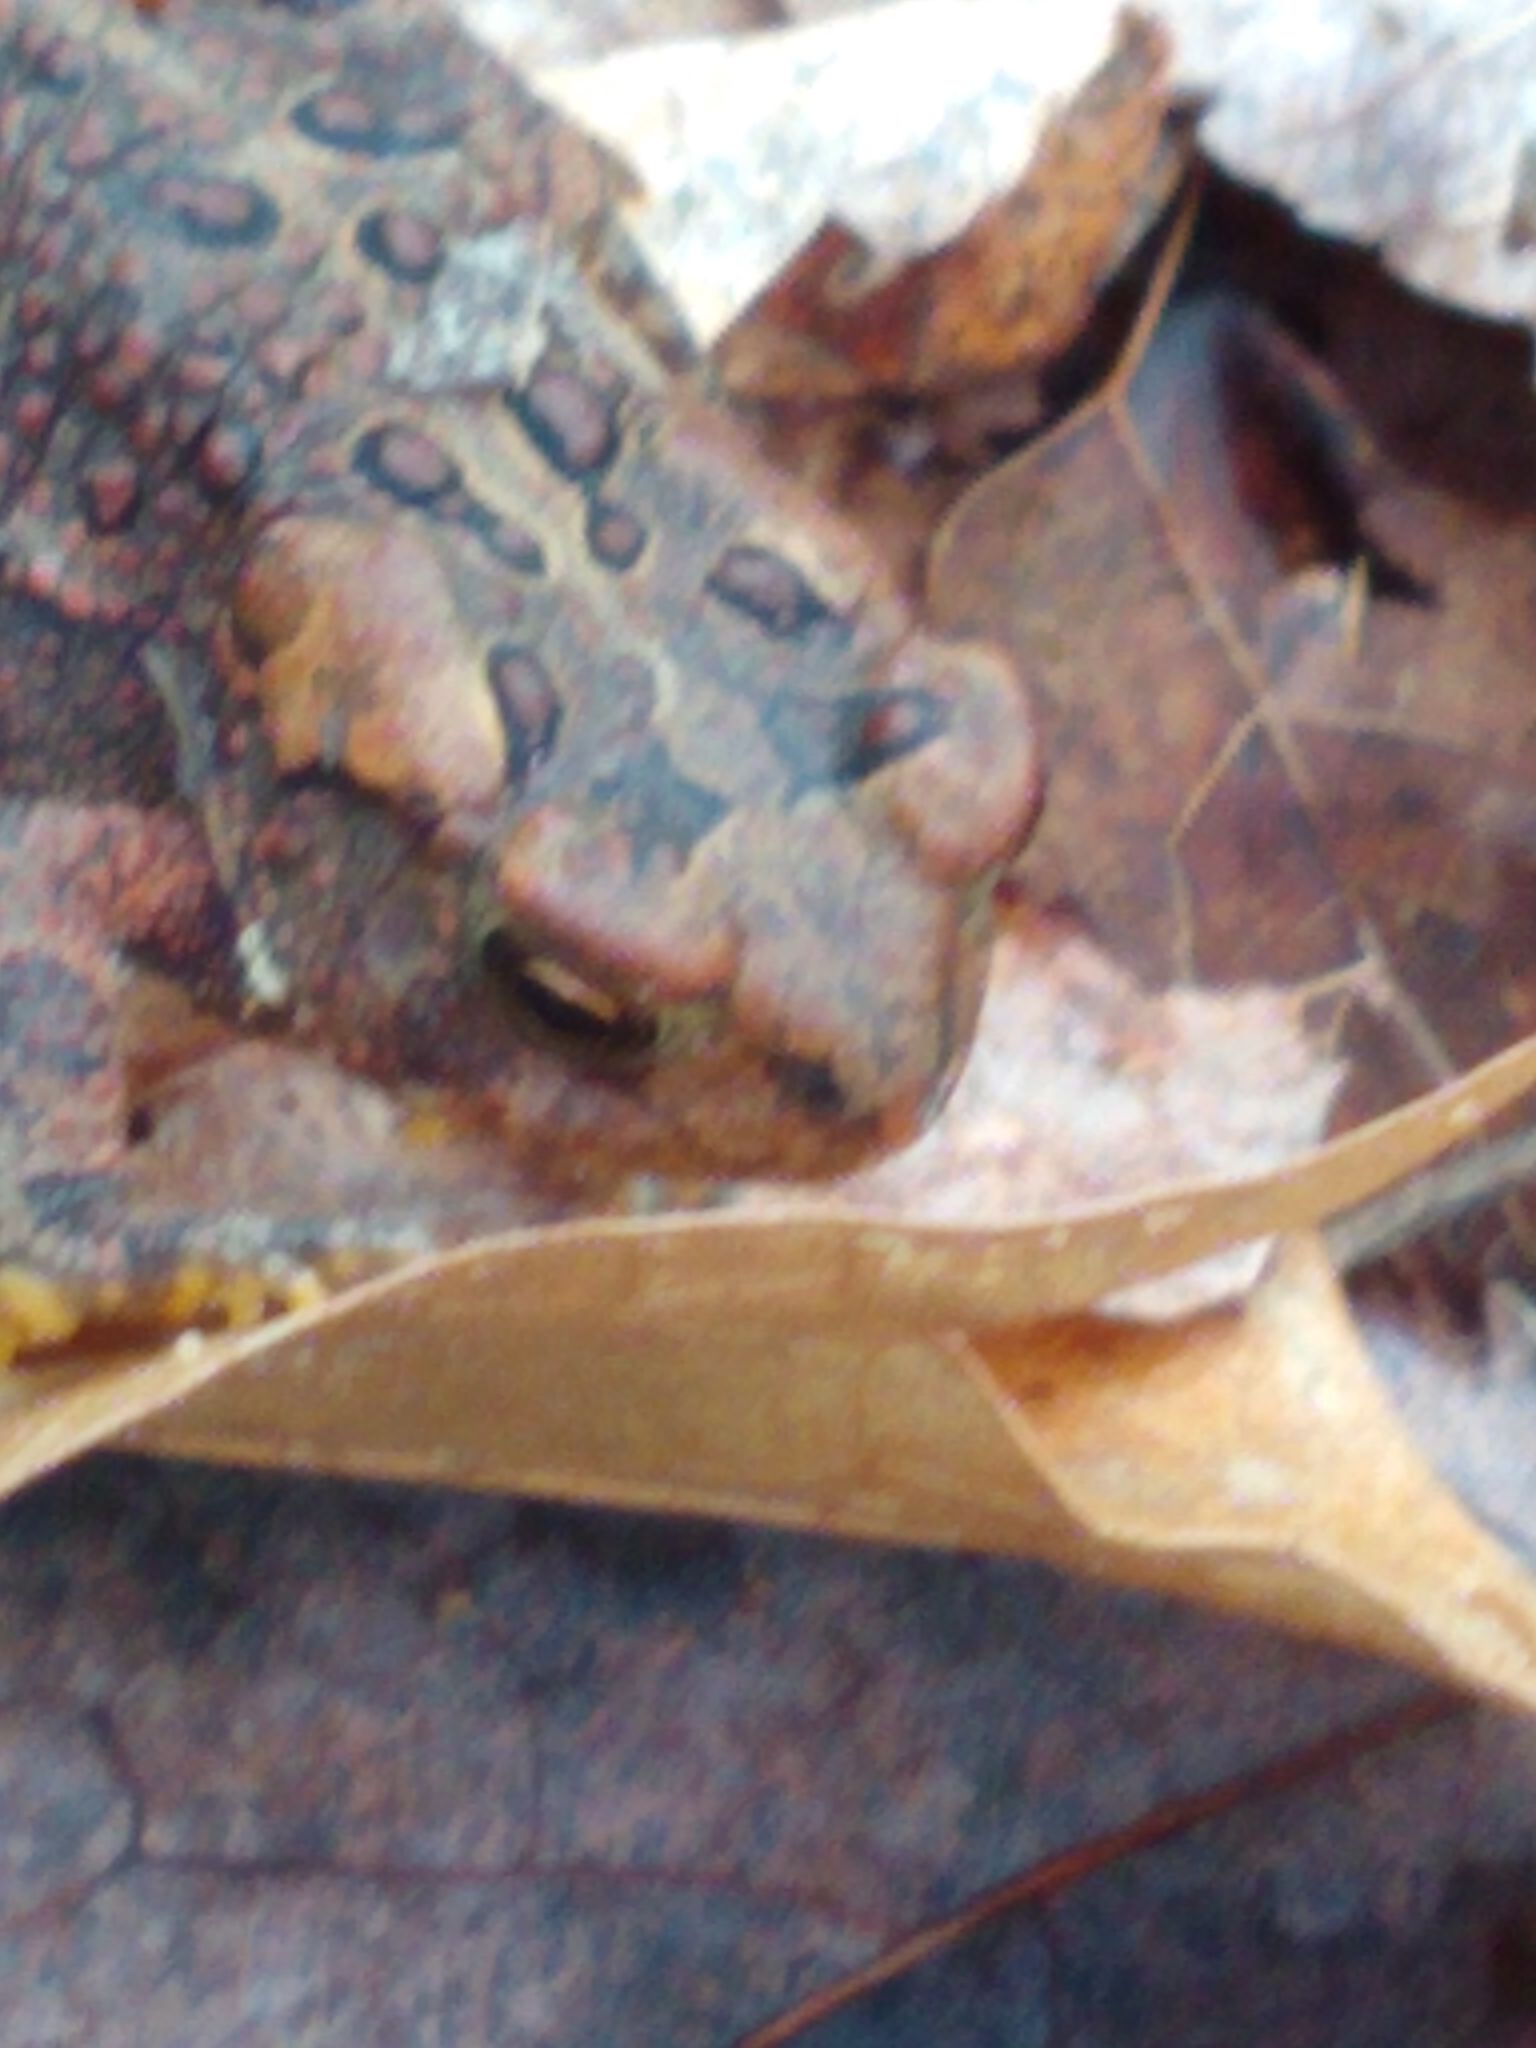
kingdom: Animalia
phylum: Chordata
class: Amphibia
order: Anura
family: Bufonidae
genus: Anaxyrus
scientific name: Anaxyrus americanus
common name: American toad
